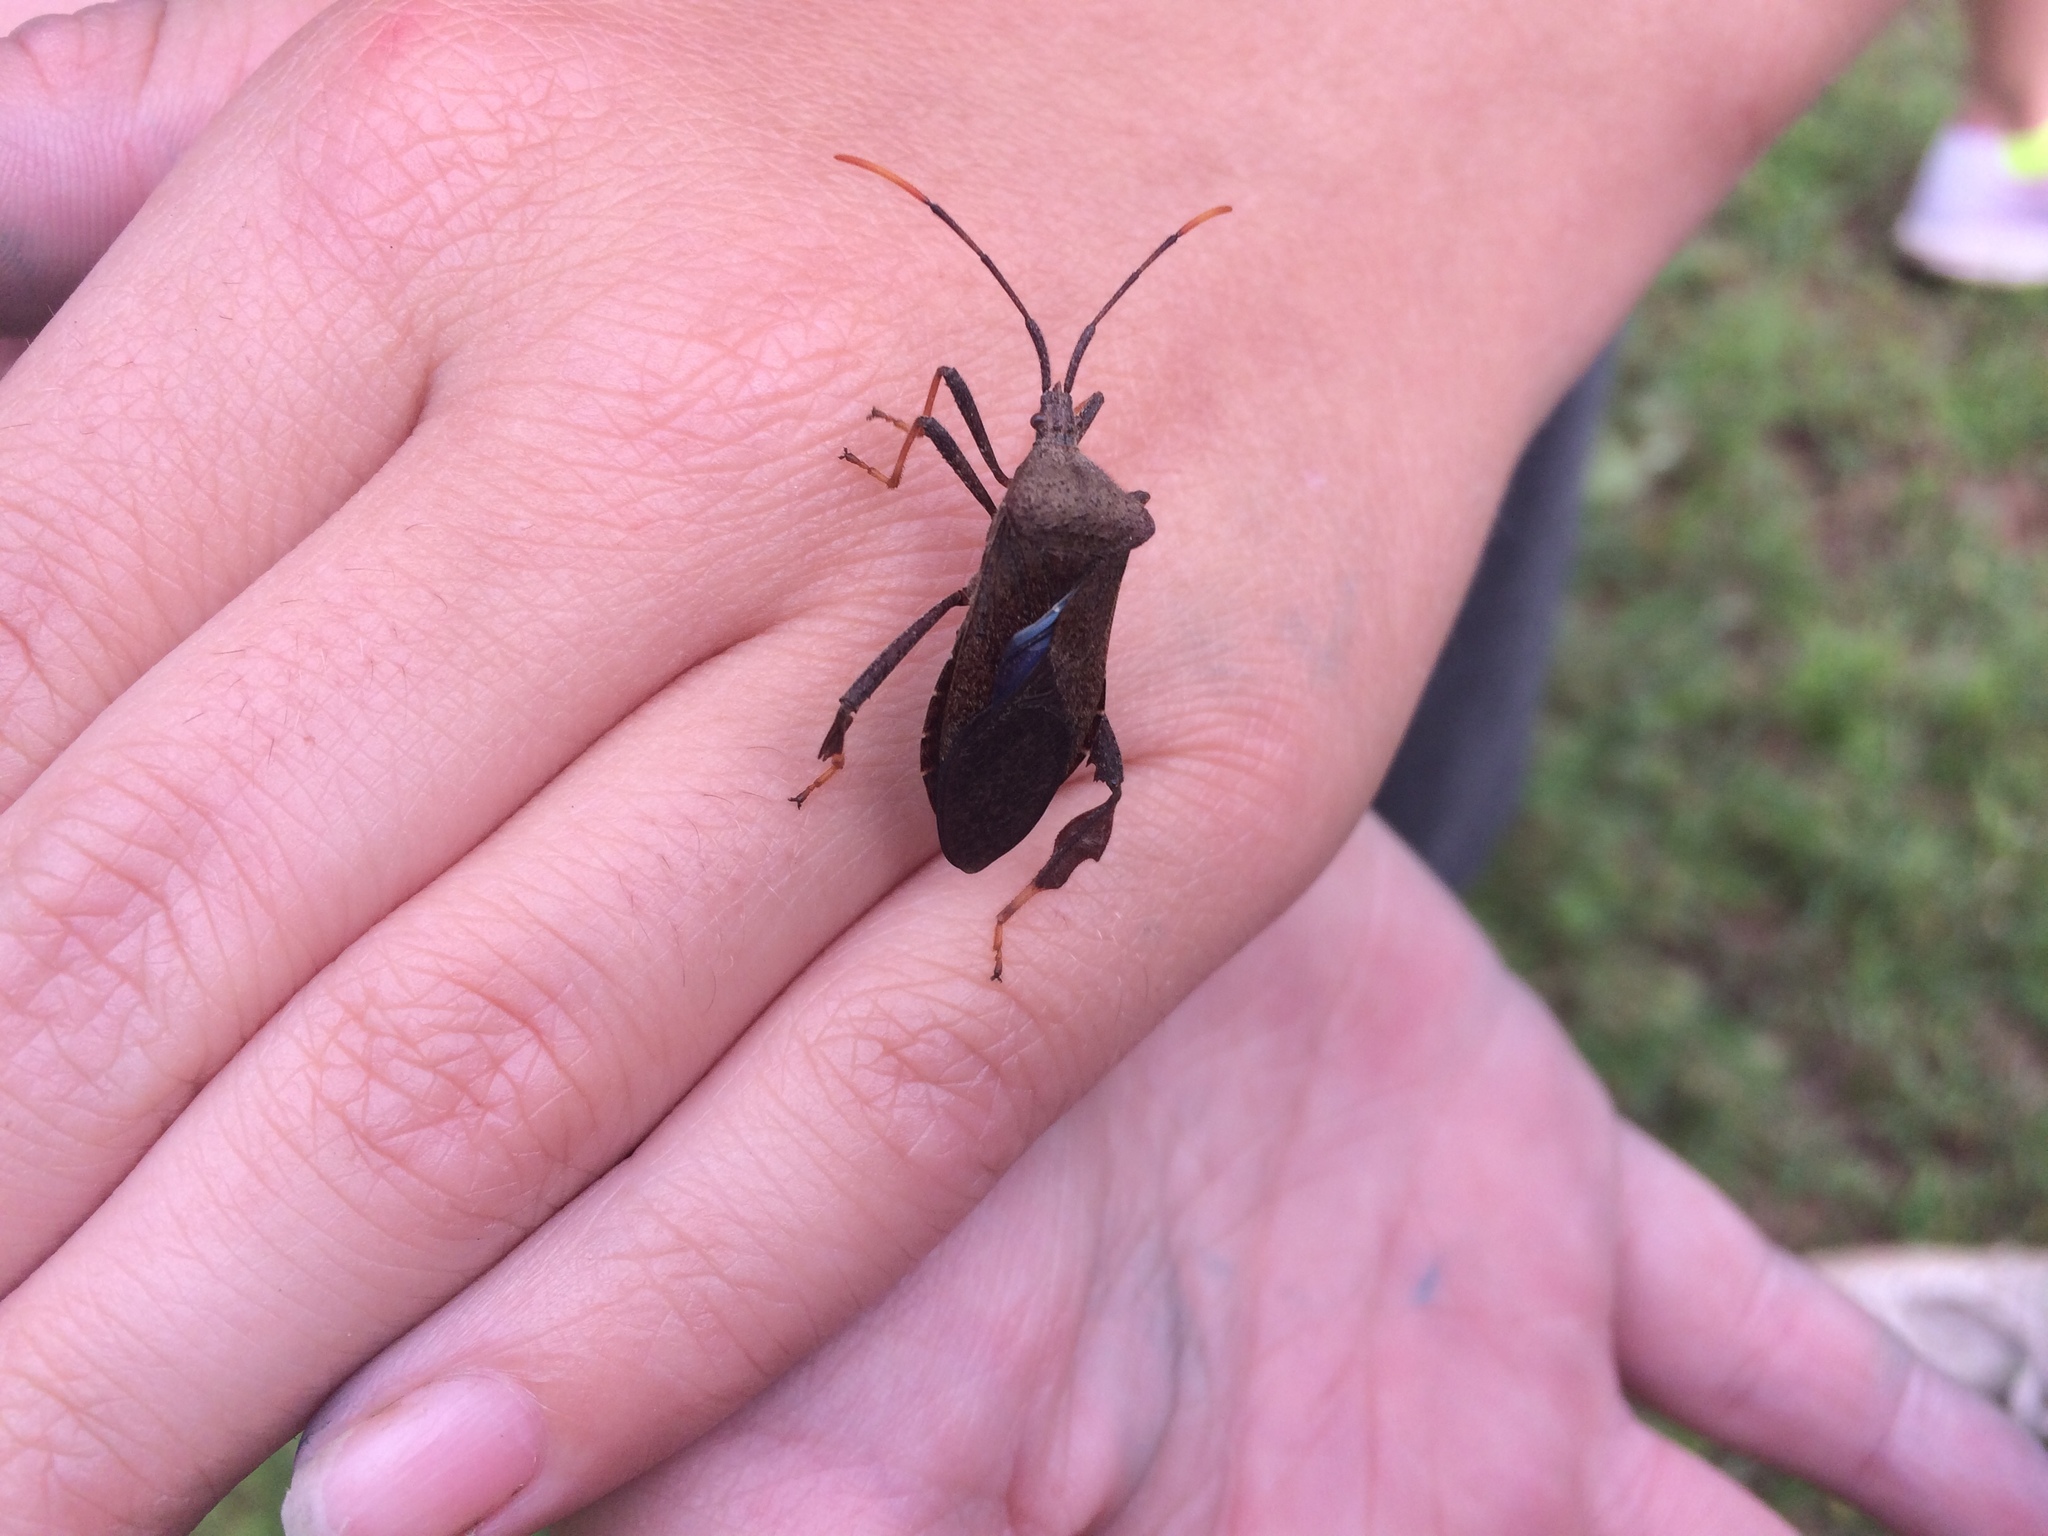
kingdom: Animalia
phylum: Arthropoda
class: Insecta
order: Hemiptera
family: Coreidae
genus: Acanthocephala
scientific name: Acanthocephala terminalis
